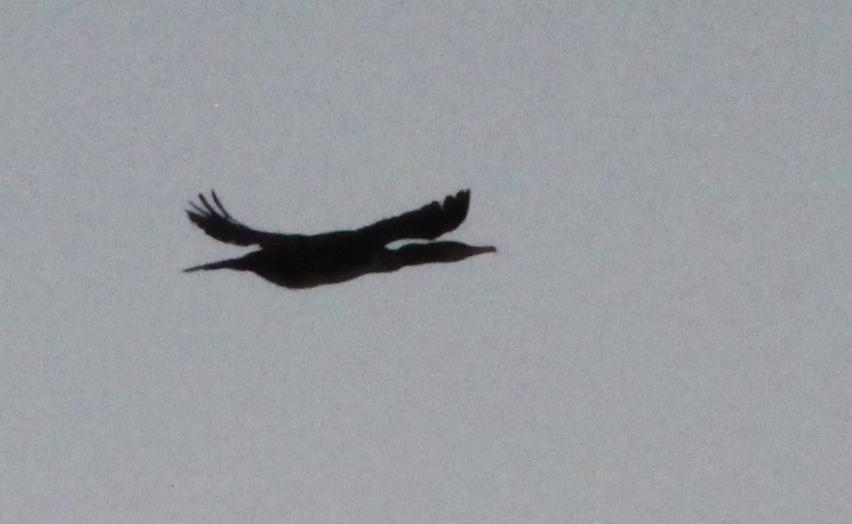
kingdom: Animalia
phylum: Chordata
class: Aves
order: Suliformes
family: Phalacrocoracidae
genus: Phalacrocorax
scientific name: Phalacrocorax carbo
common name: Great cormorant
